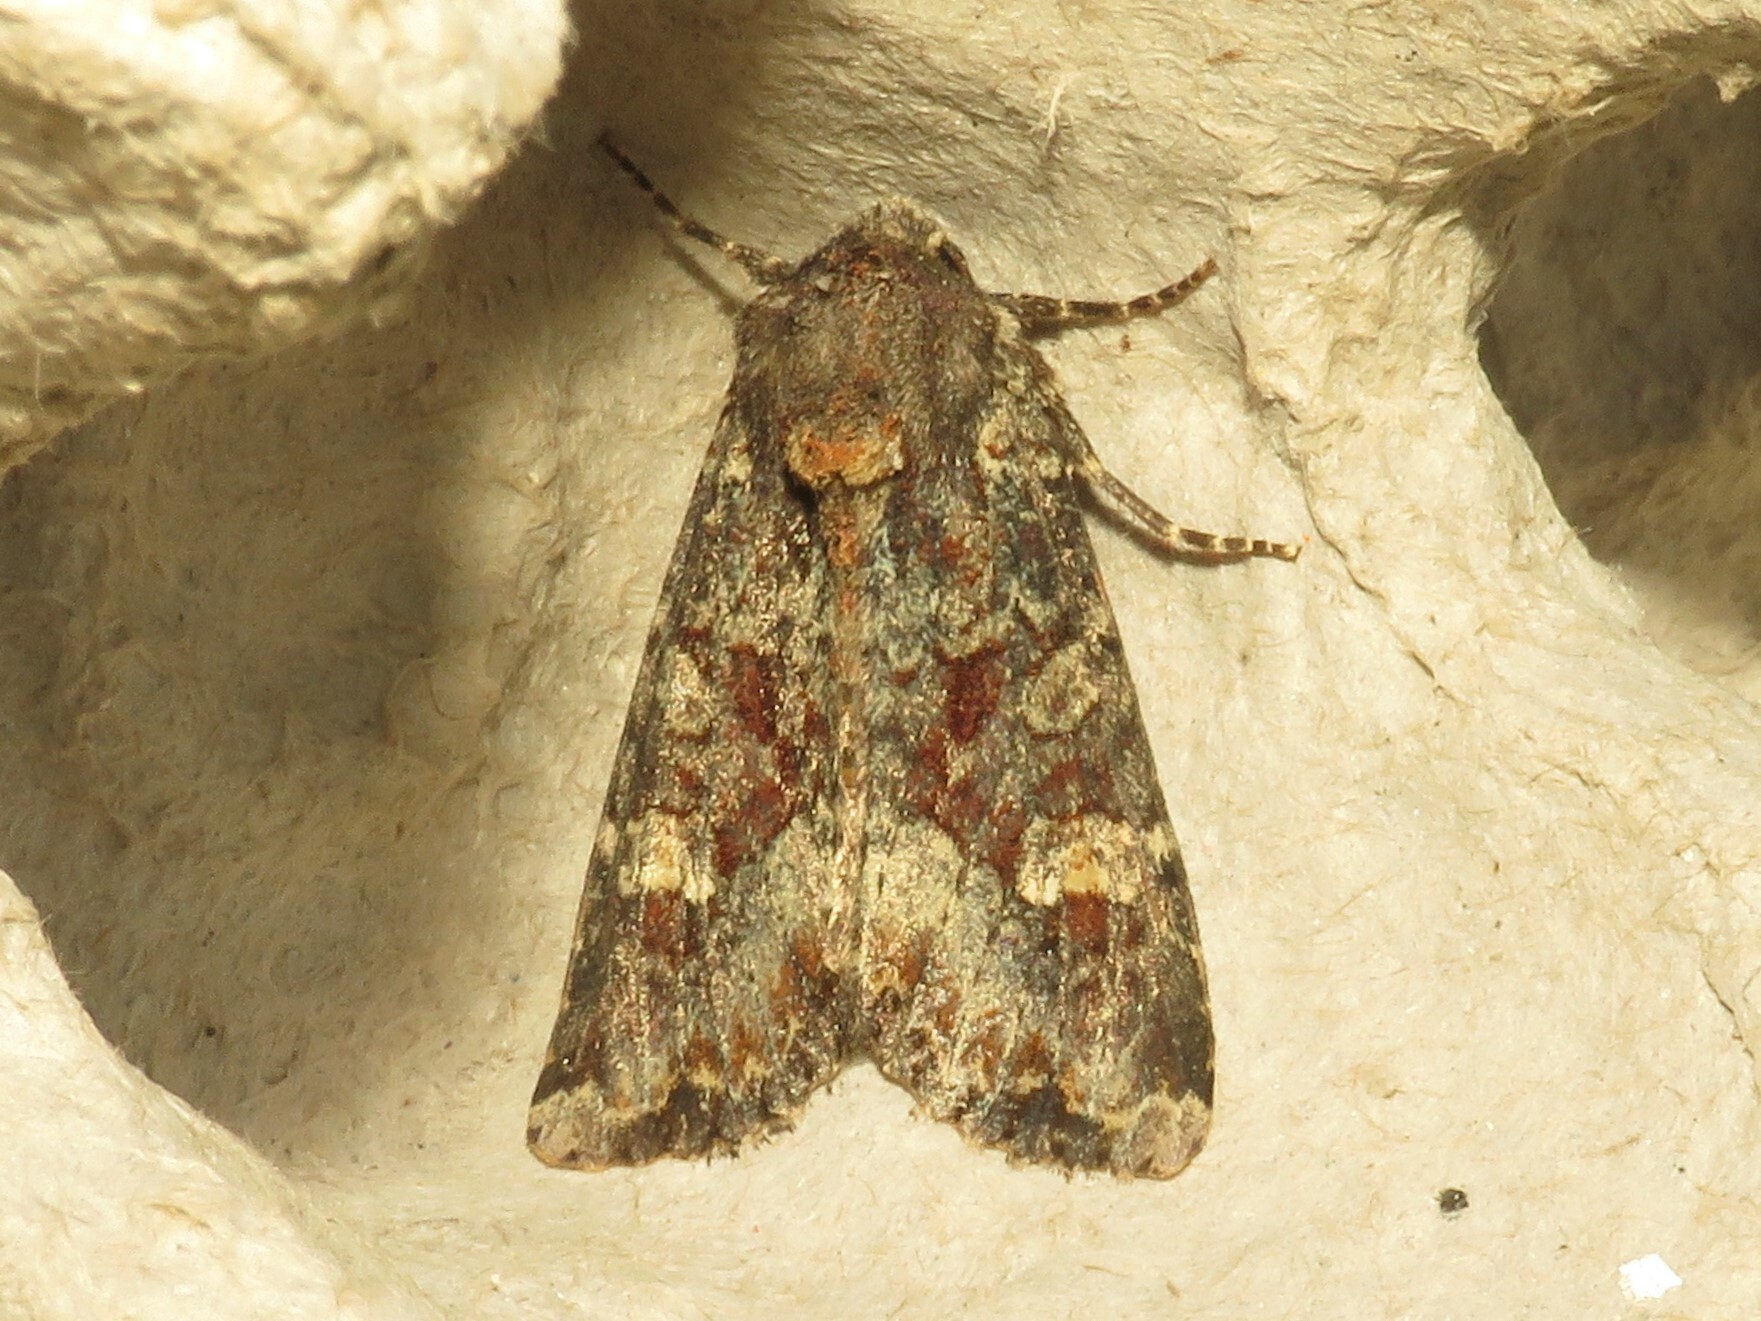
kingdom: Animalia
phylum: Arthropoda
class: Insecta
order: Lepidoptera
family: Noctuidae
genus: Apamea
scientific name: Apamea amputatrix
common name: Yellow-headed cutworm moth
